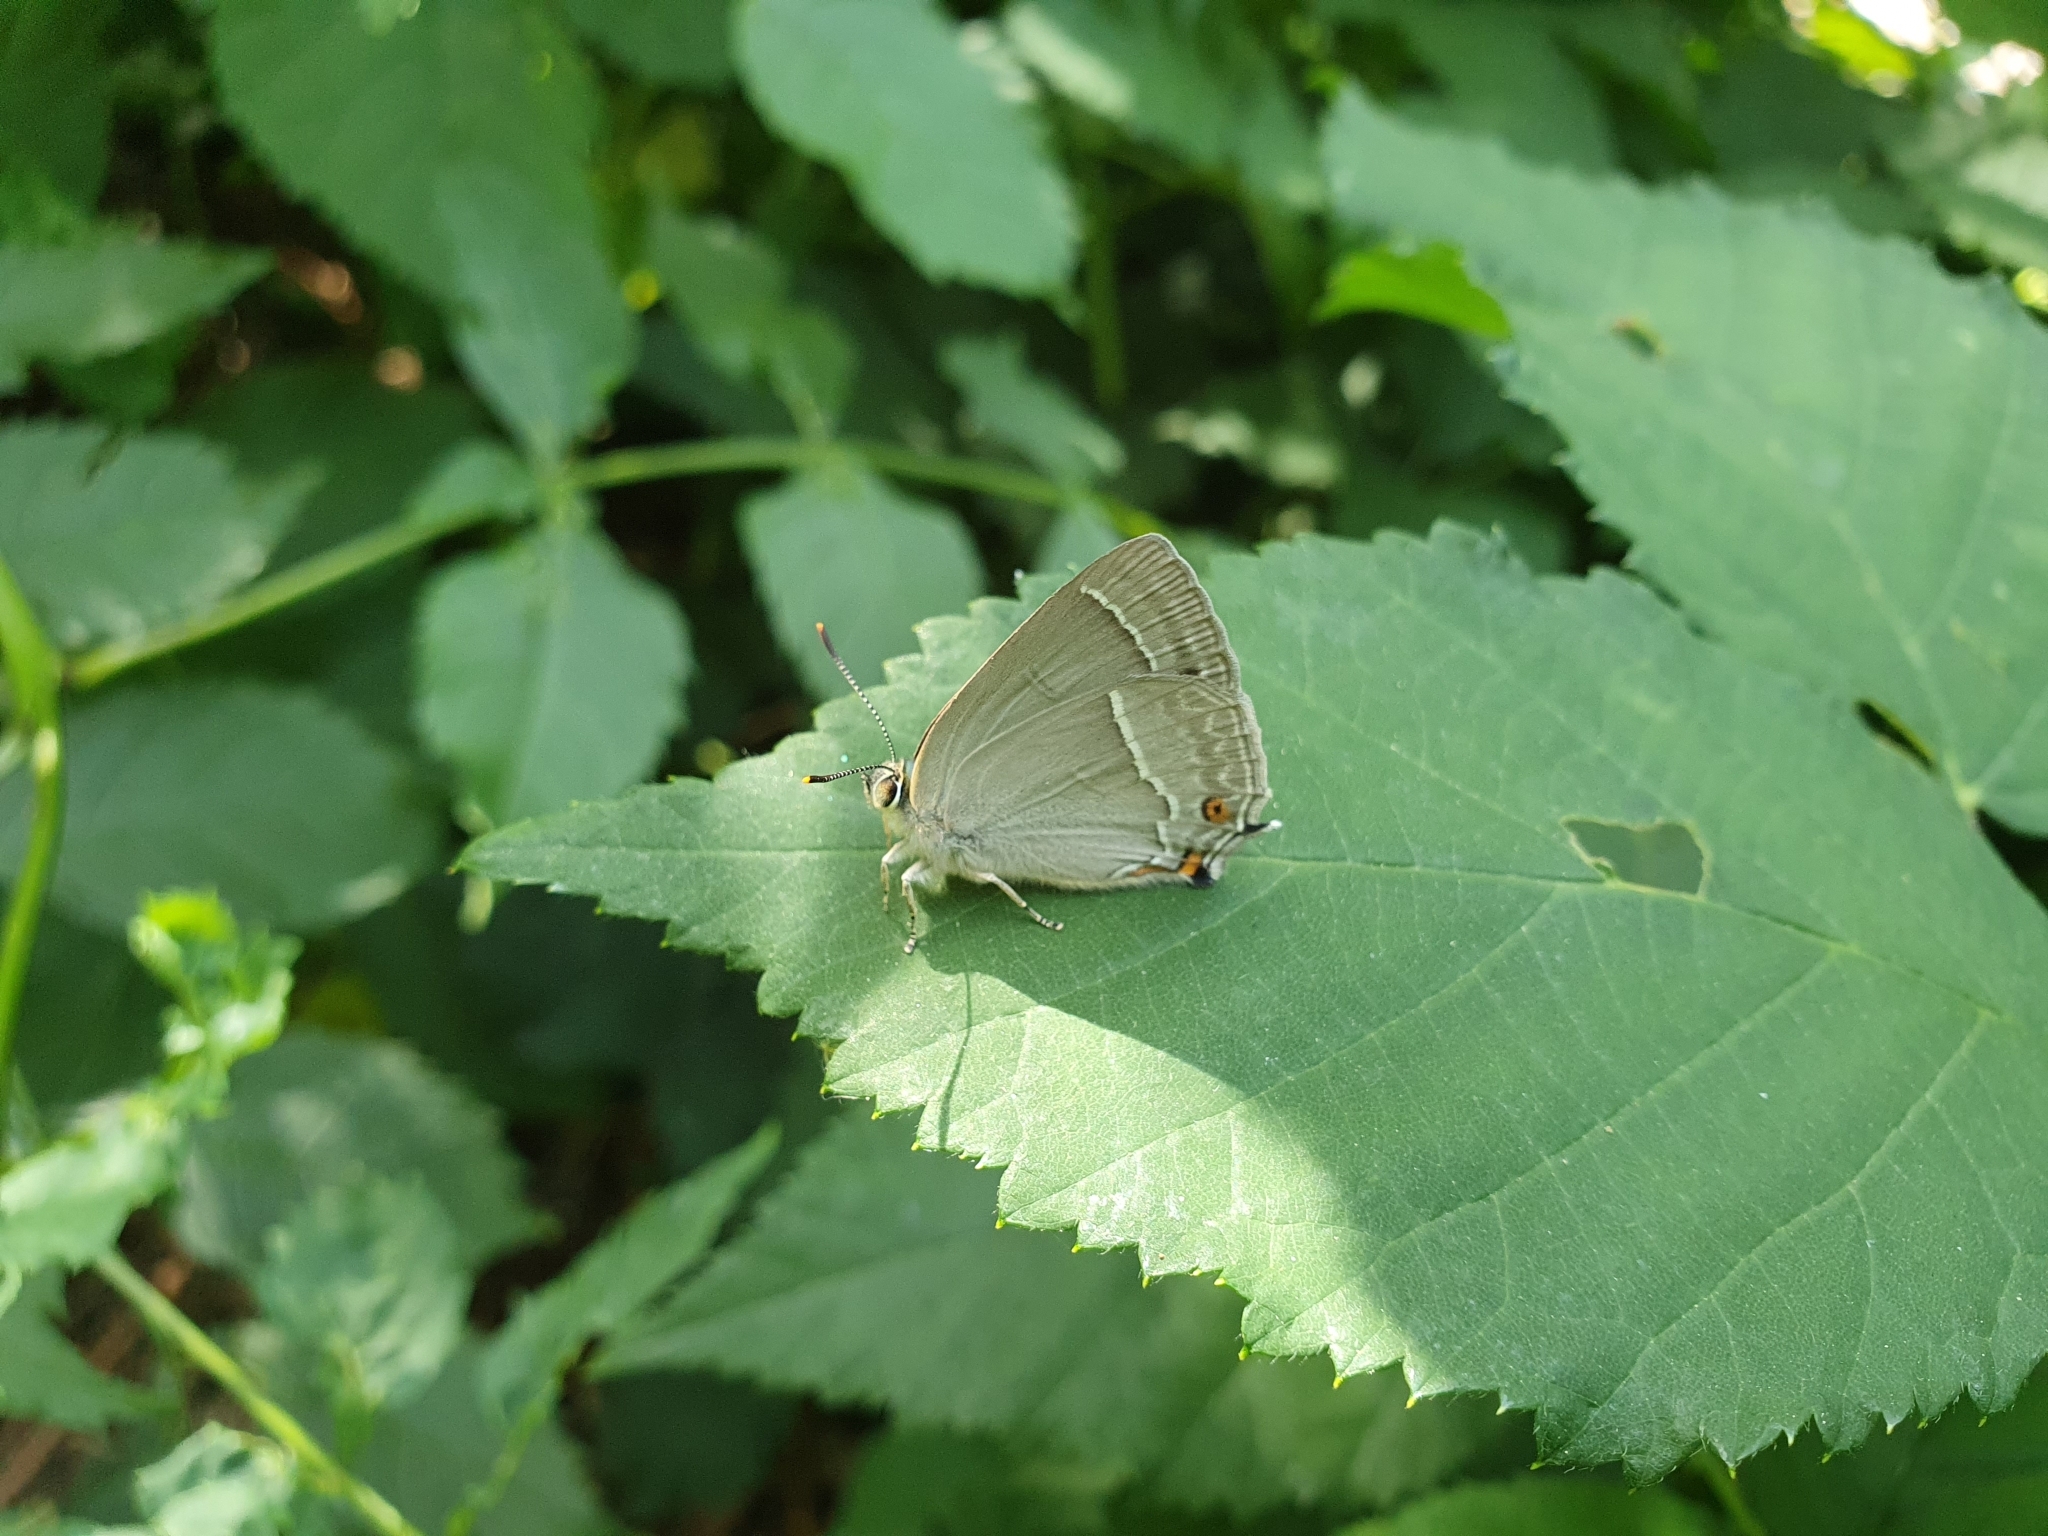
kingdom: Animalia
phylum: Arthropoda
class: Insecta
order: Lepidoptera
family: Lycaenidae
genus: Quercusia
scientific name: Quercusia quercus
